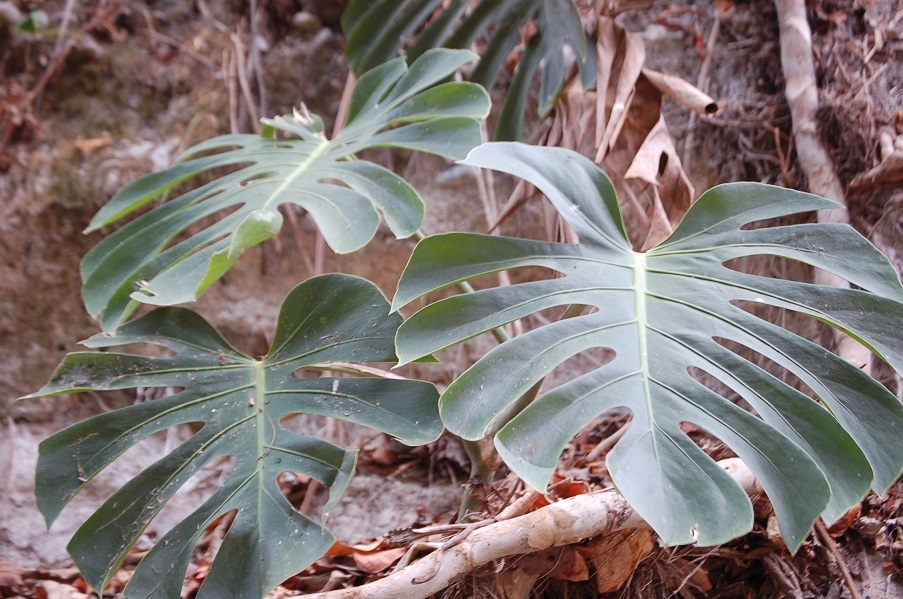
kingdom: Plantae
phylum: Tracheophyta
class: Liliopsida
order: Alismatales
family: Araceae
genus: Monstera
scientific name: Monstera deliciosa
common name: Cut-leaf-philodendron
